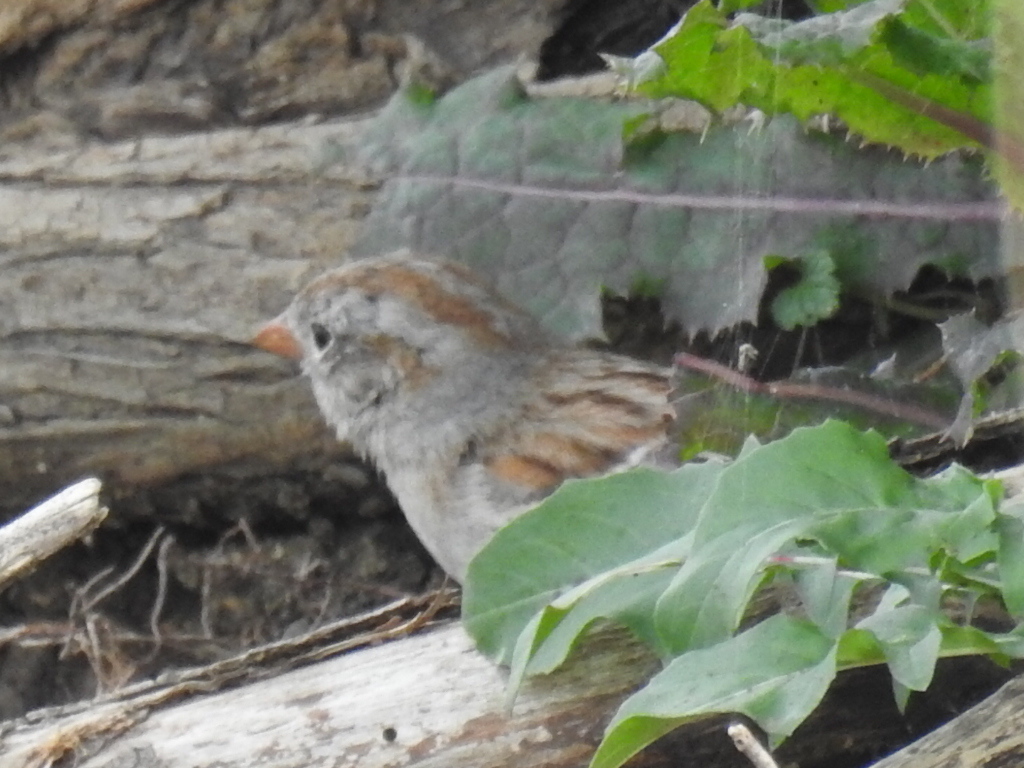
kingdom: Animalia
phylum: Chordata
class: Aves
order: Passeriformes
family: Passerellidae
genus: Spizella
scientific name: Spizella pusilla
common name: Field sparrow
